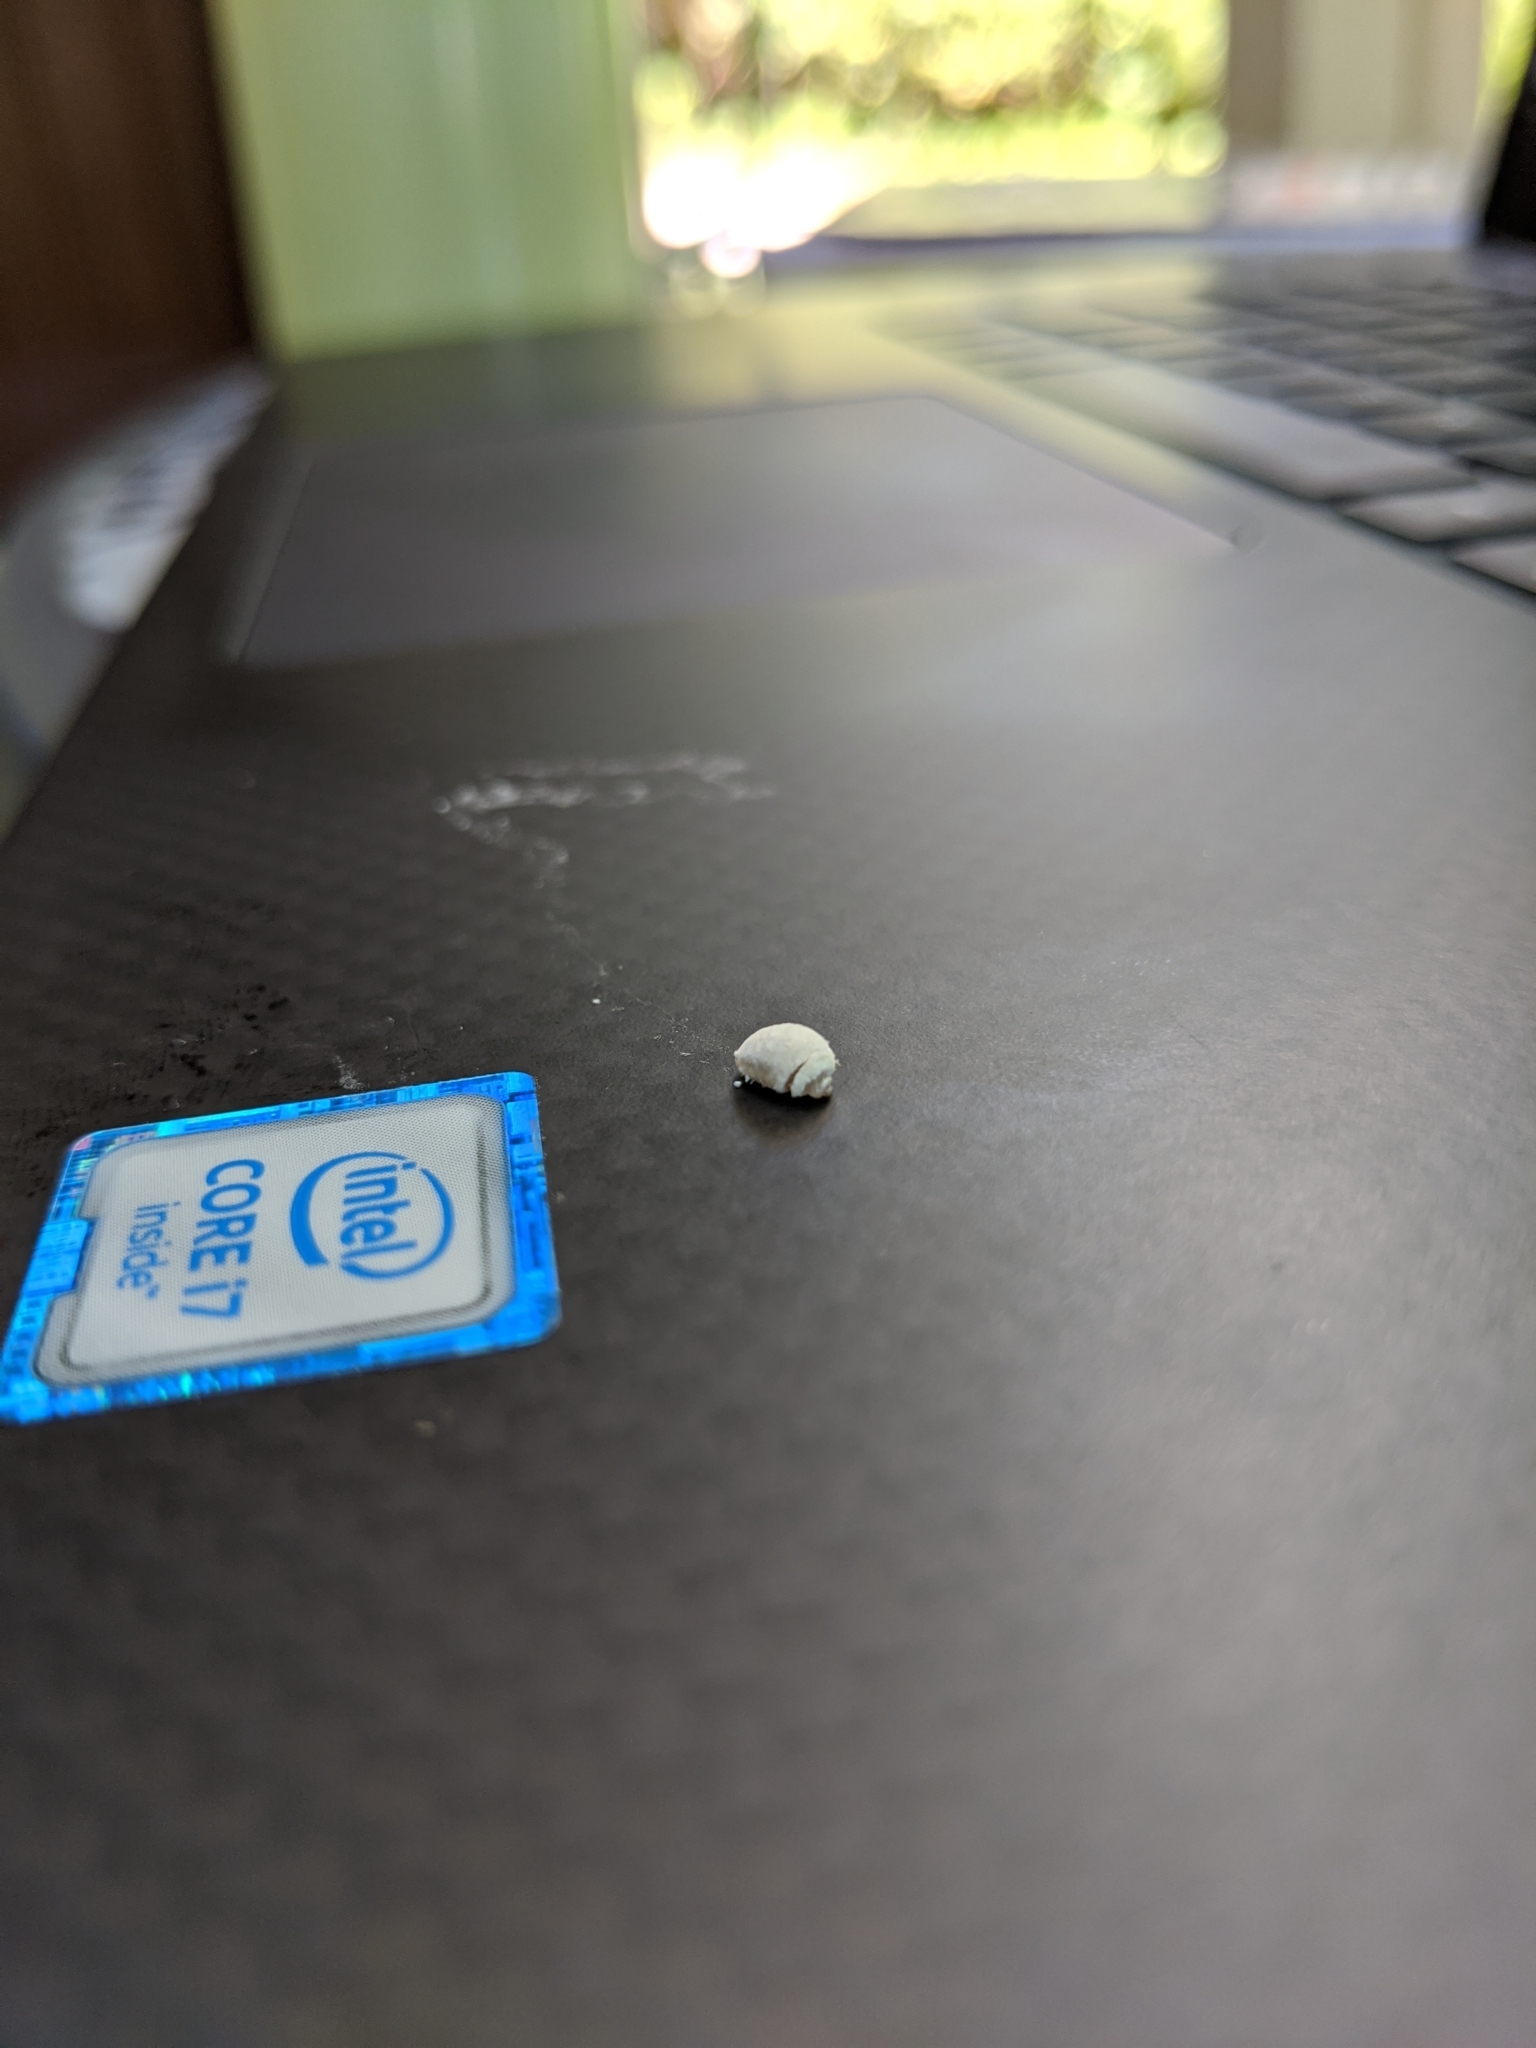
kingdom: Animalia
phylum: Arthropoda
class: Insecta
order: Lepidoptera
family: Epipyropidae
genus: Fulgoraecia
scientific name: Fulgoraecia exigua
